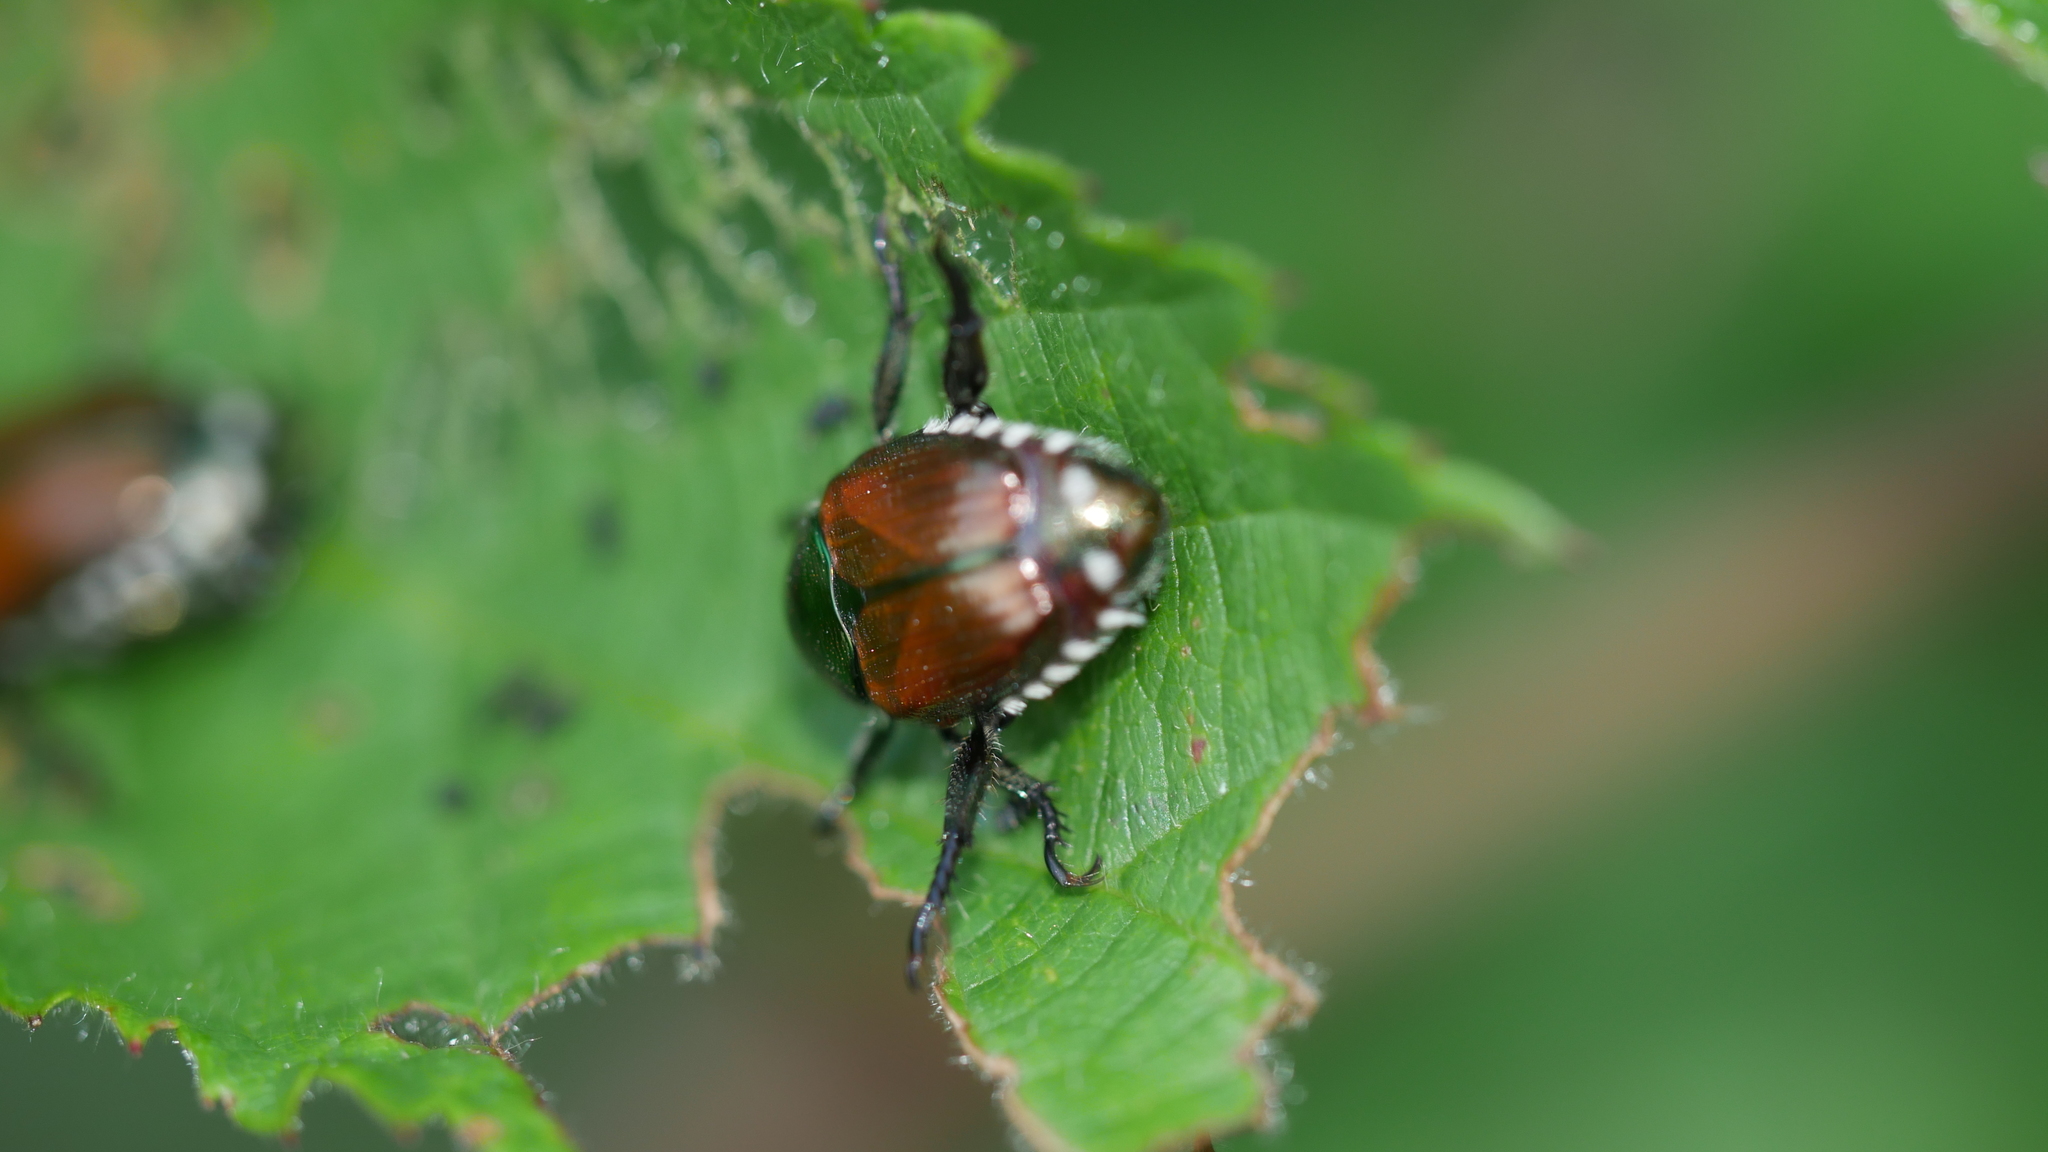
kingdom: Animalia
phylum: Arthropoda
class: Insecta
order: Coleoptera
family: Scarabaeidae
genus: Popillia
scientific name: Popillia japonica
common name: Japanese beetle
